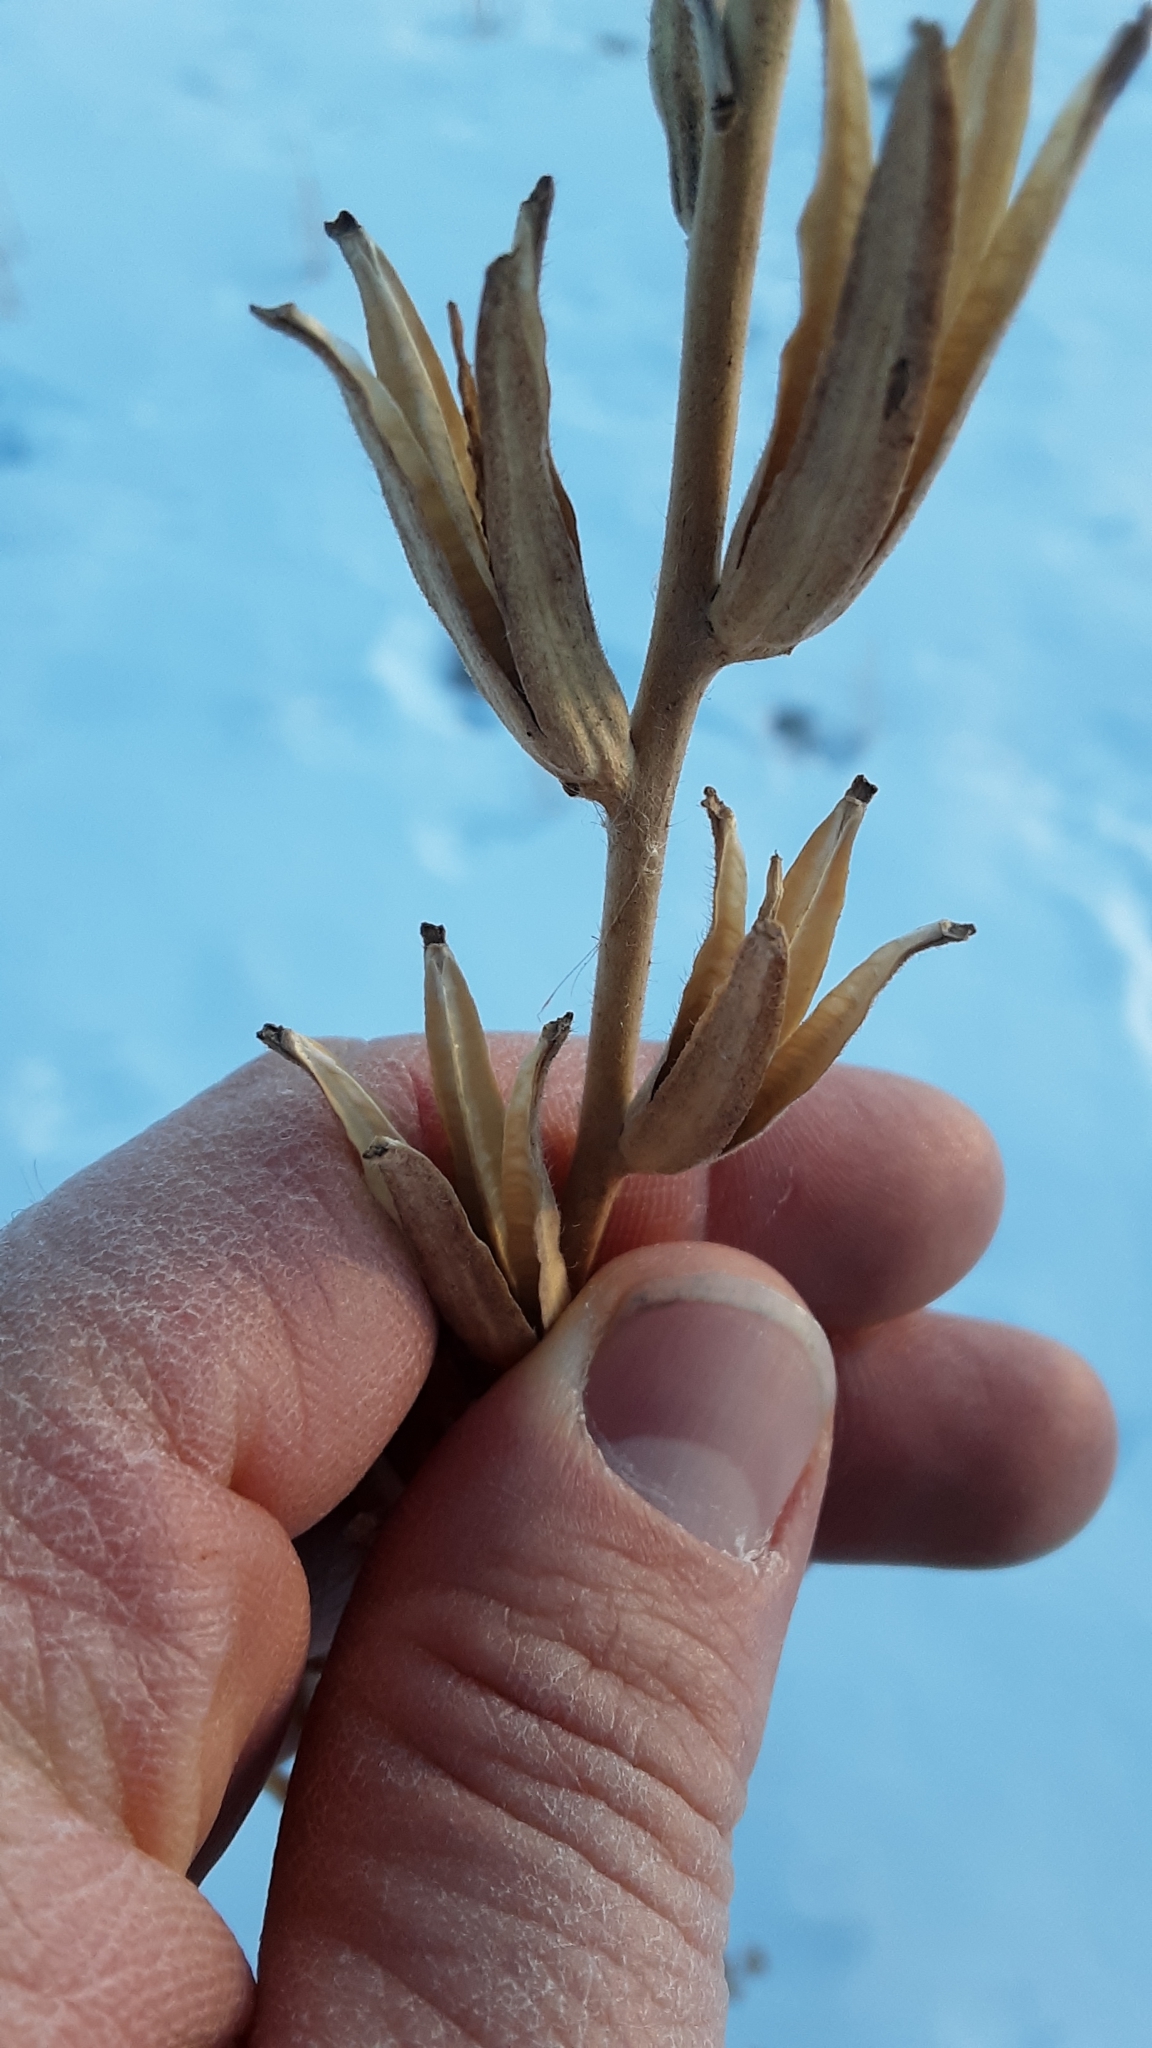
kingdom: Plantae
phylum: Tracheophyta
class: Magnoliopsida
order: Myrtales
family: Onagraceae
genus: Oenothera
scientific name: Oenothera villosa
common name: Hairy evening-primrose
